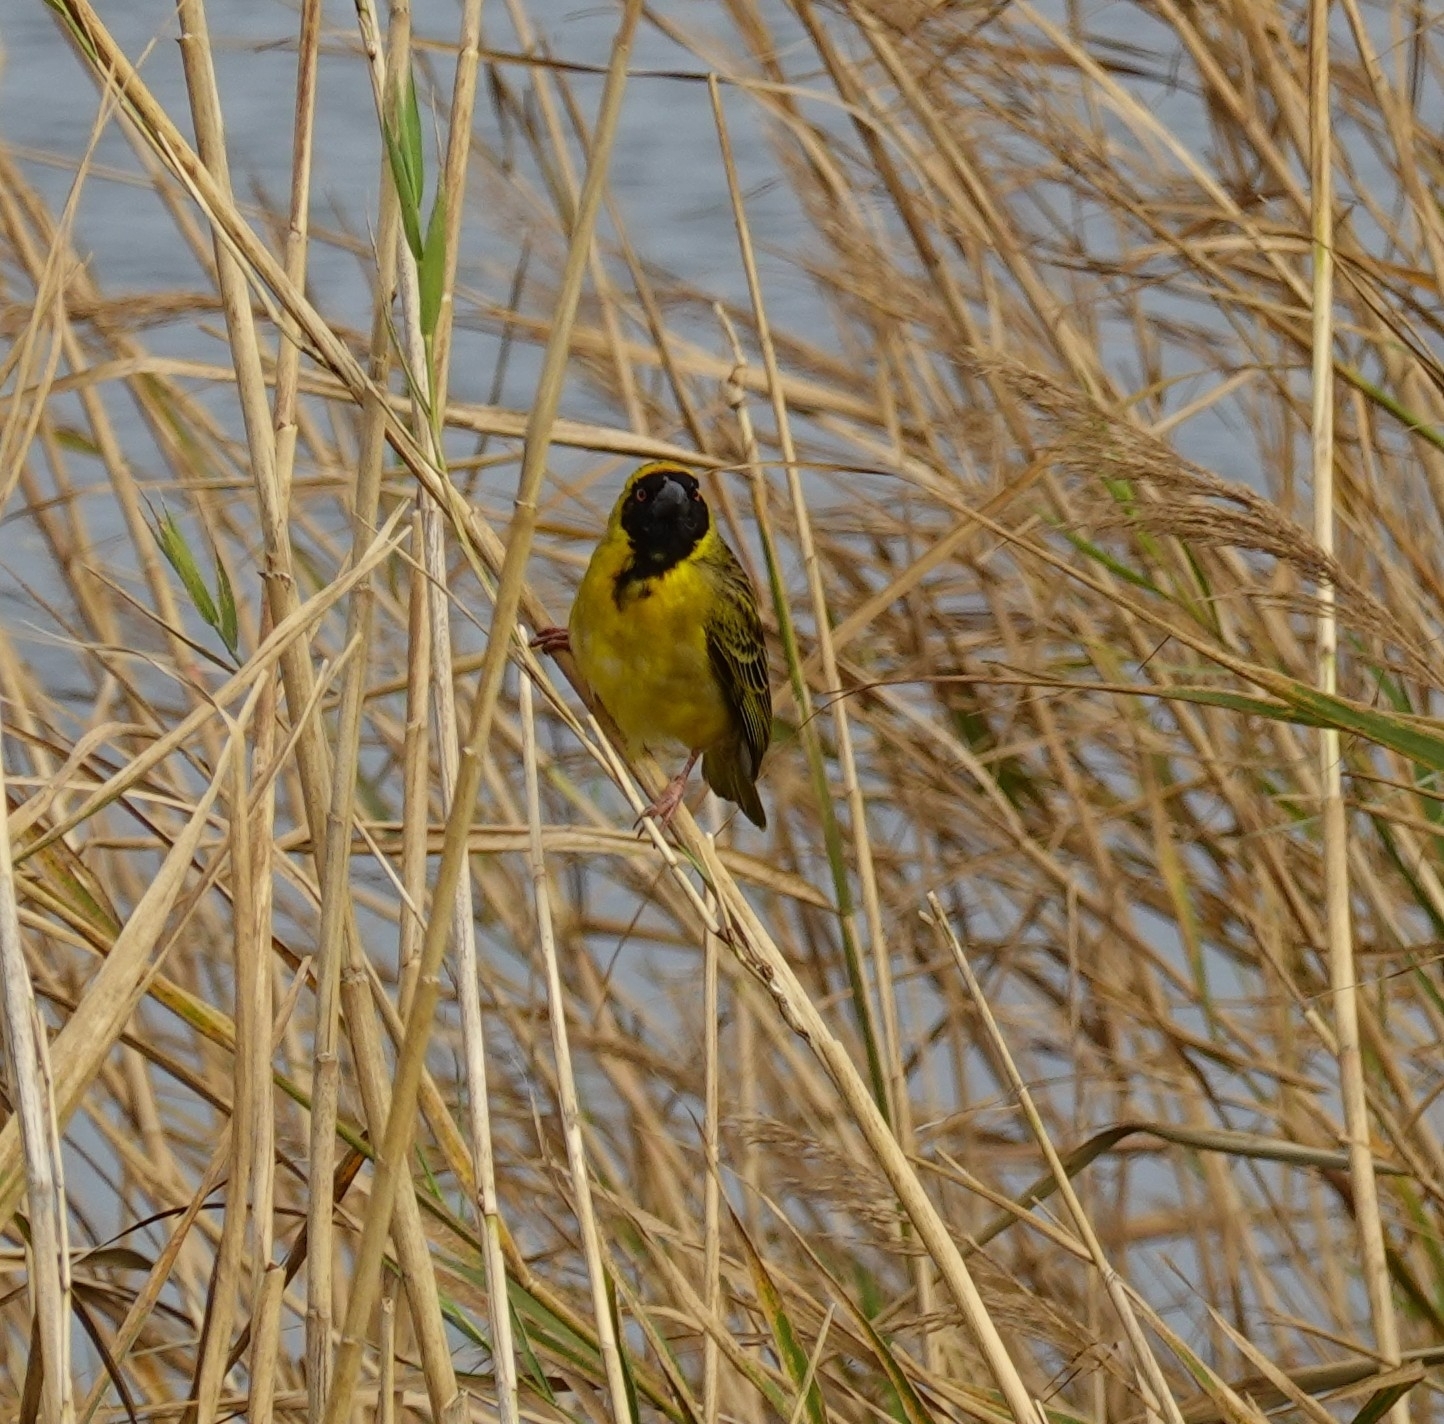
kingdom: Animalia
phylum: Chordata
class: Aves
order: Passeriformes
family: Ploceidae
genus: Ploceus
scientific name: Ploceus velatus
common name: Southern masked weaver
